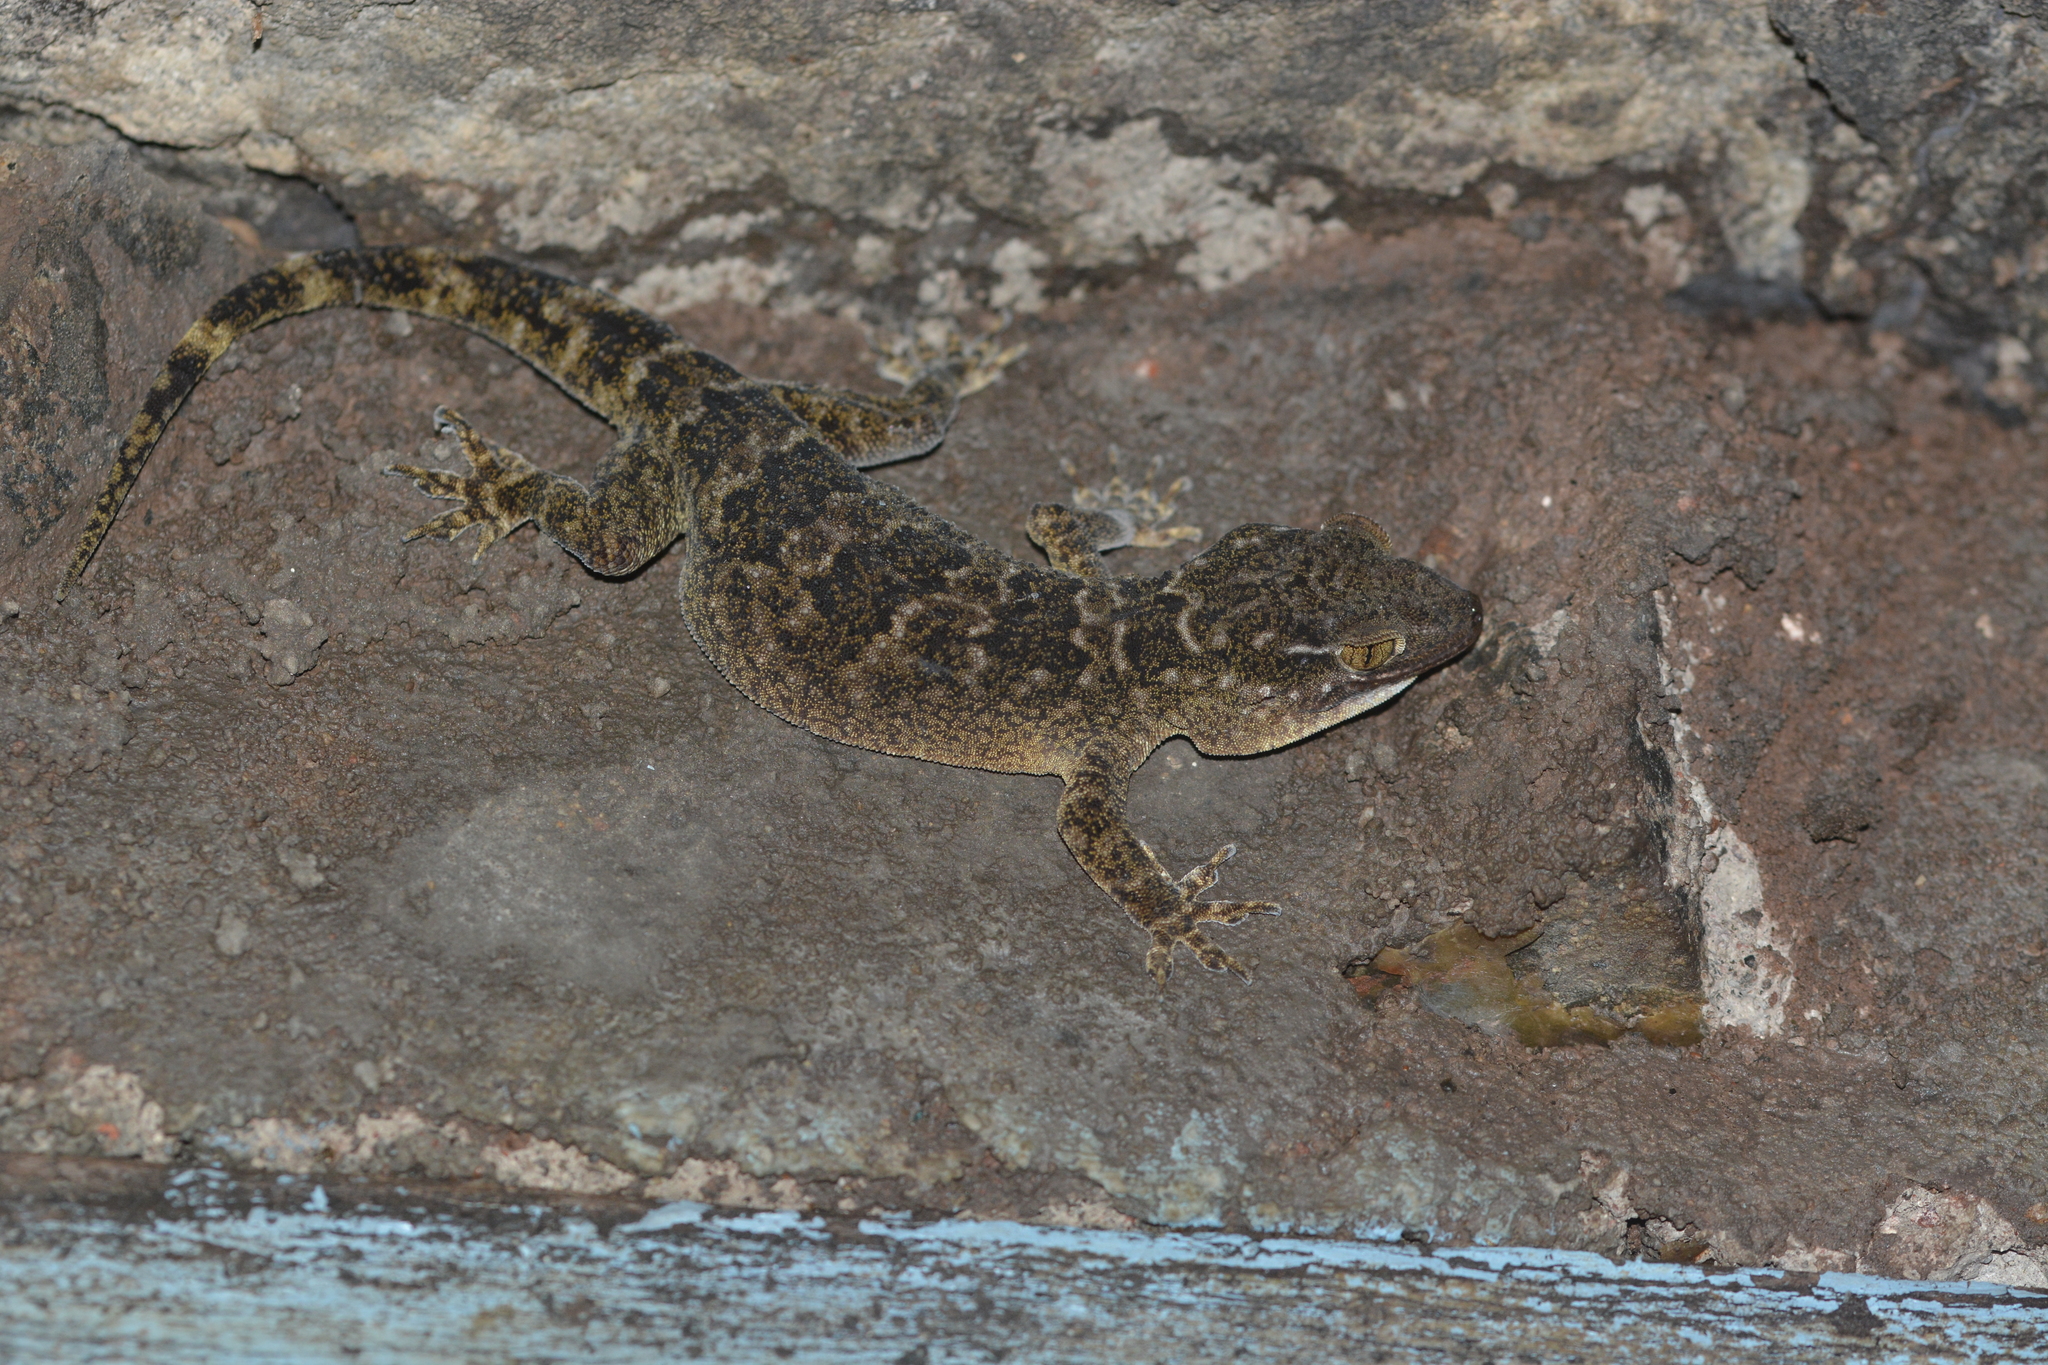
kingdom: Animalia
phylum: Chordata
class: Squamata
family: Gekkonidae
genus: Hemidactylus
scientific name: Hemidactylus aaronbaueri
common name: Aaron bauer’s house gecko
